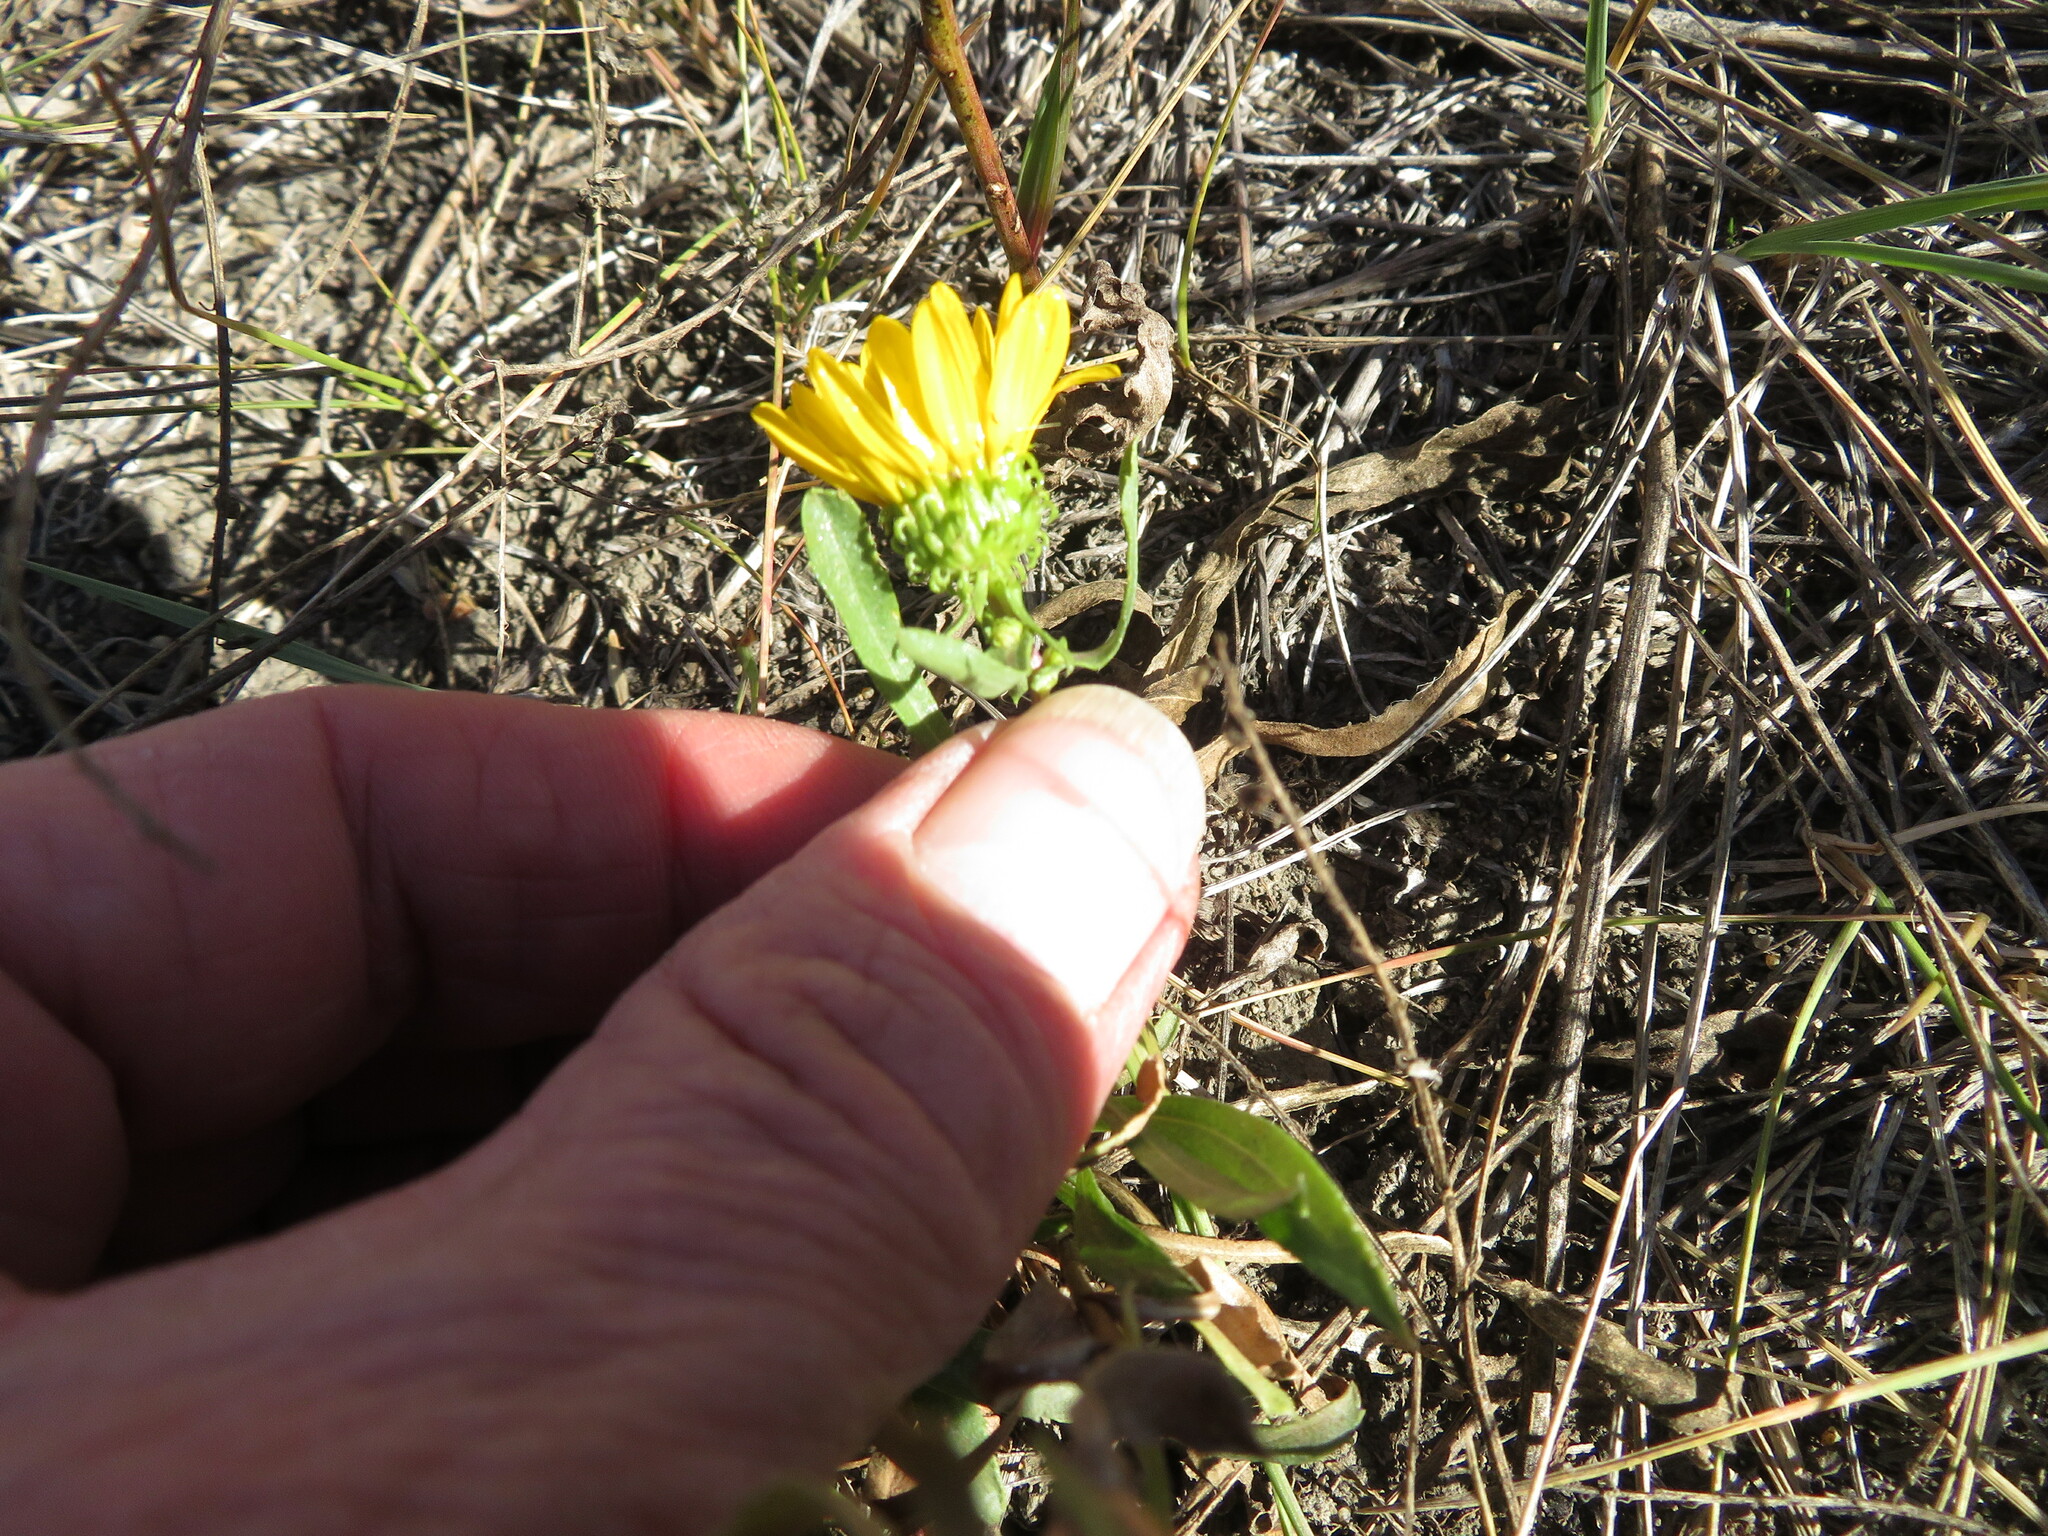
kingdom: Plantae
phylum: Tracheophyta
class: Magnoliopsida
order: Asterales
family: Asteraceae
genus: Grindelia
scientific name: Grindelia squarrosa
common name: Curly-cup gumweed
